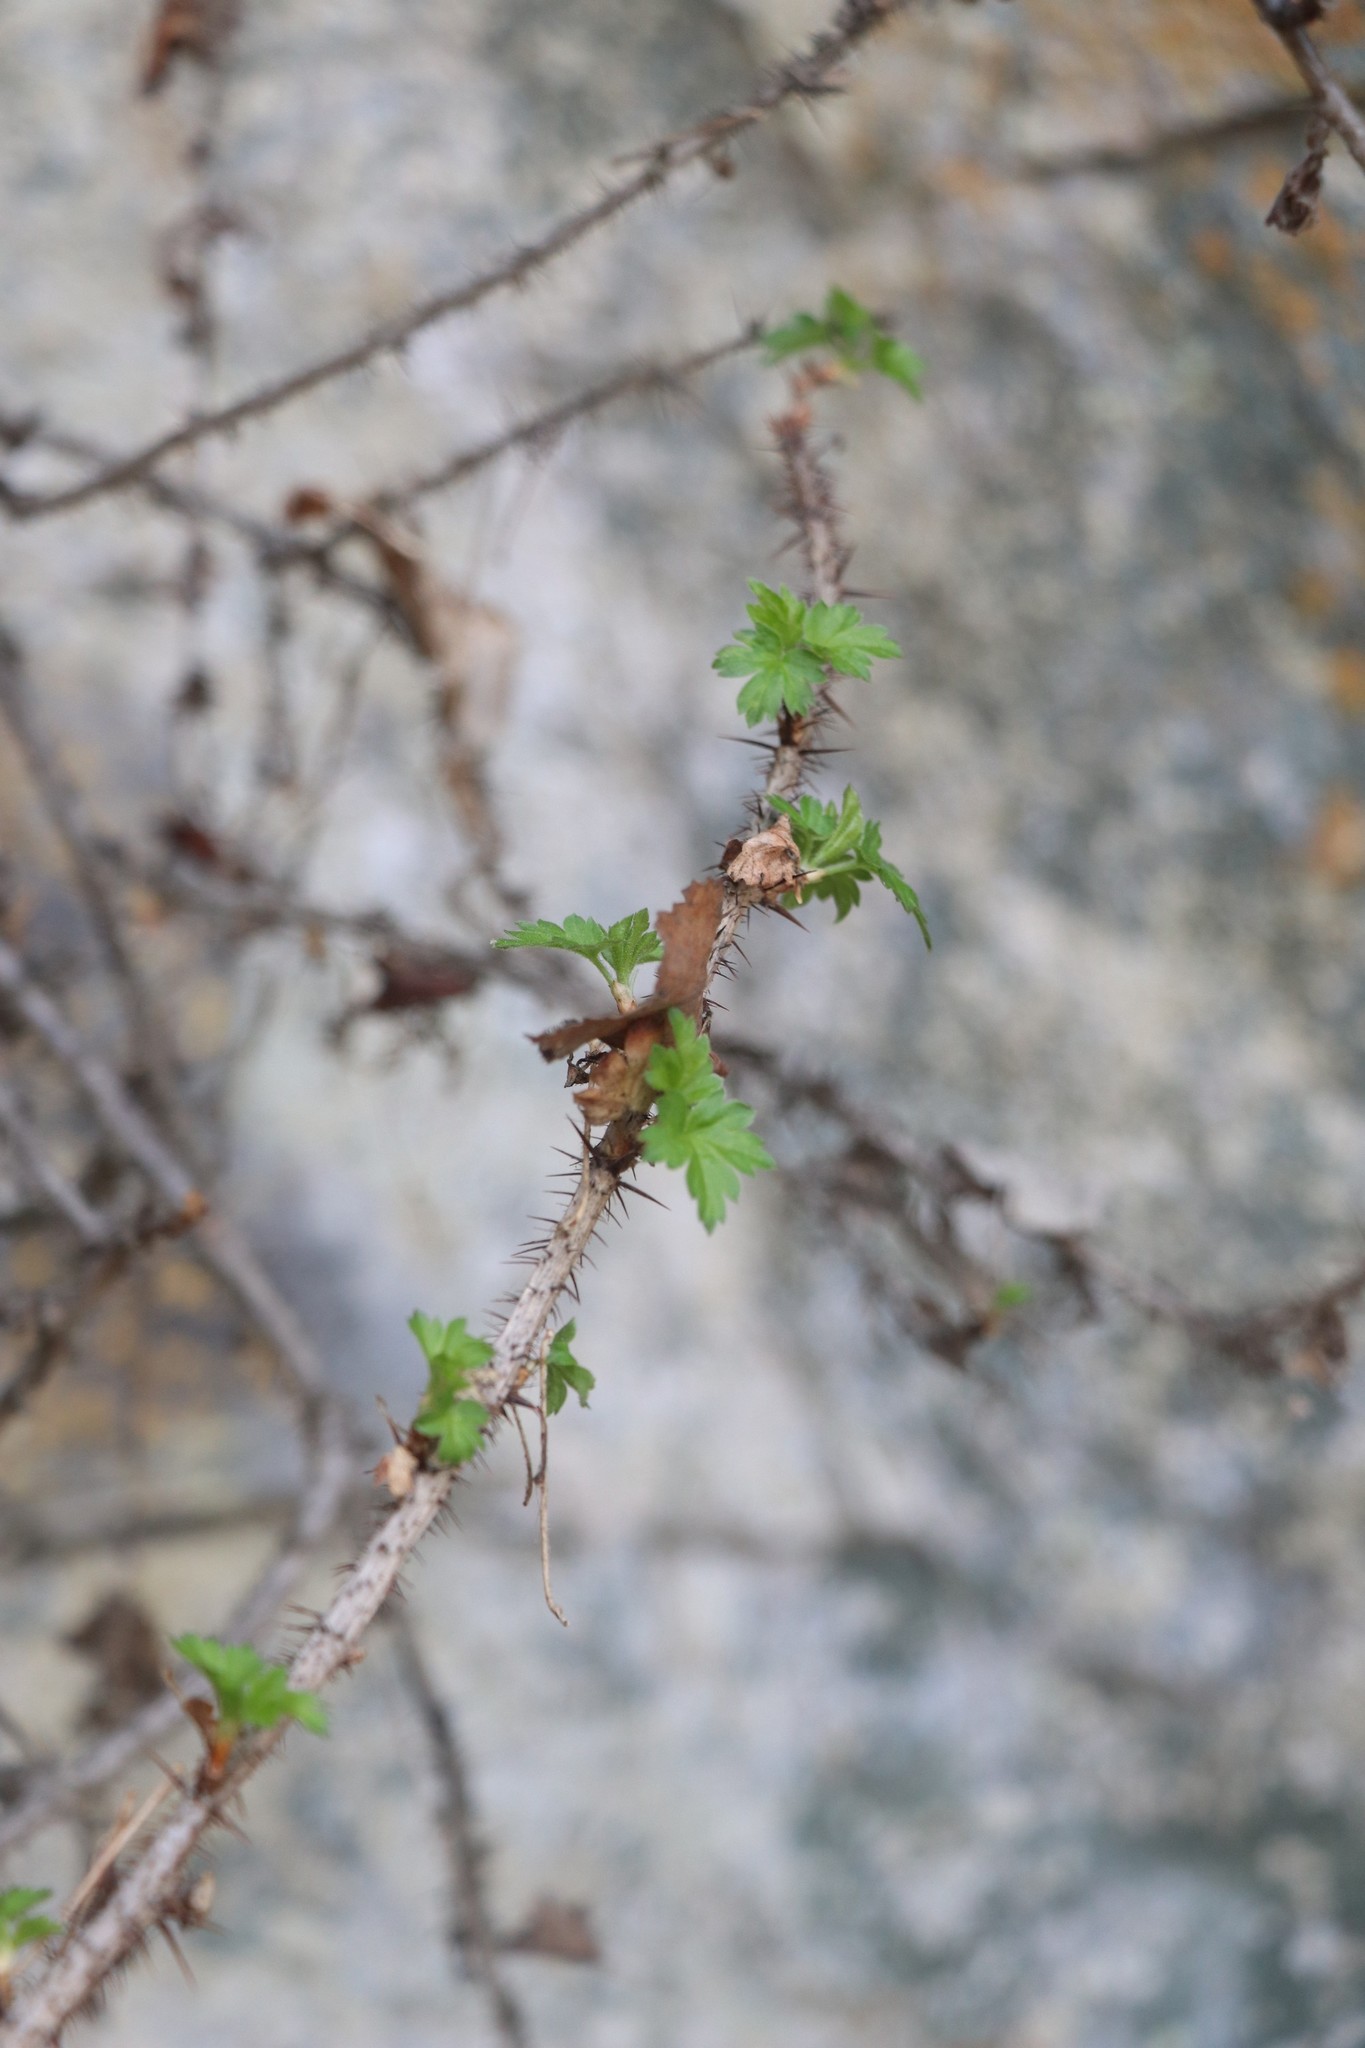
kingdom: Plantae
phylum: Tracheophyta
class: Magnoliopsida
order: Saxifragales
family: Grossulariaceae
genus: Ribes
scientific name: Ribes aciculare
